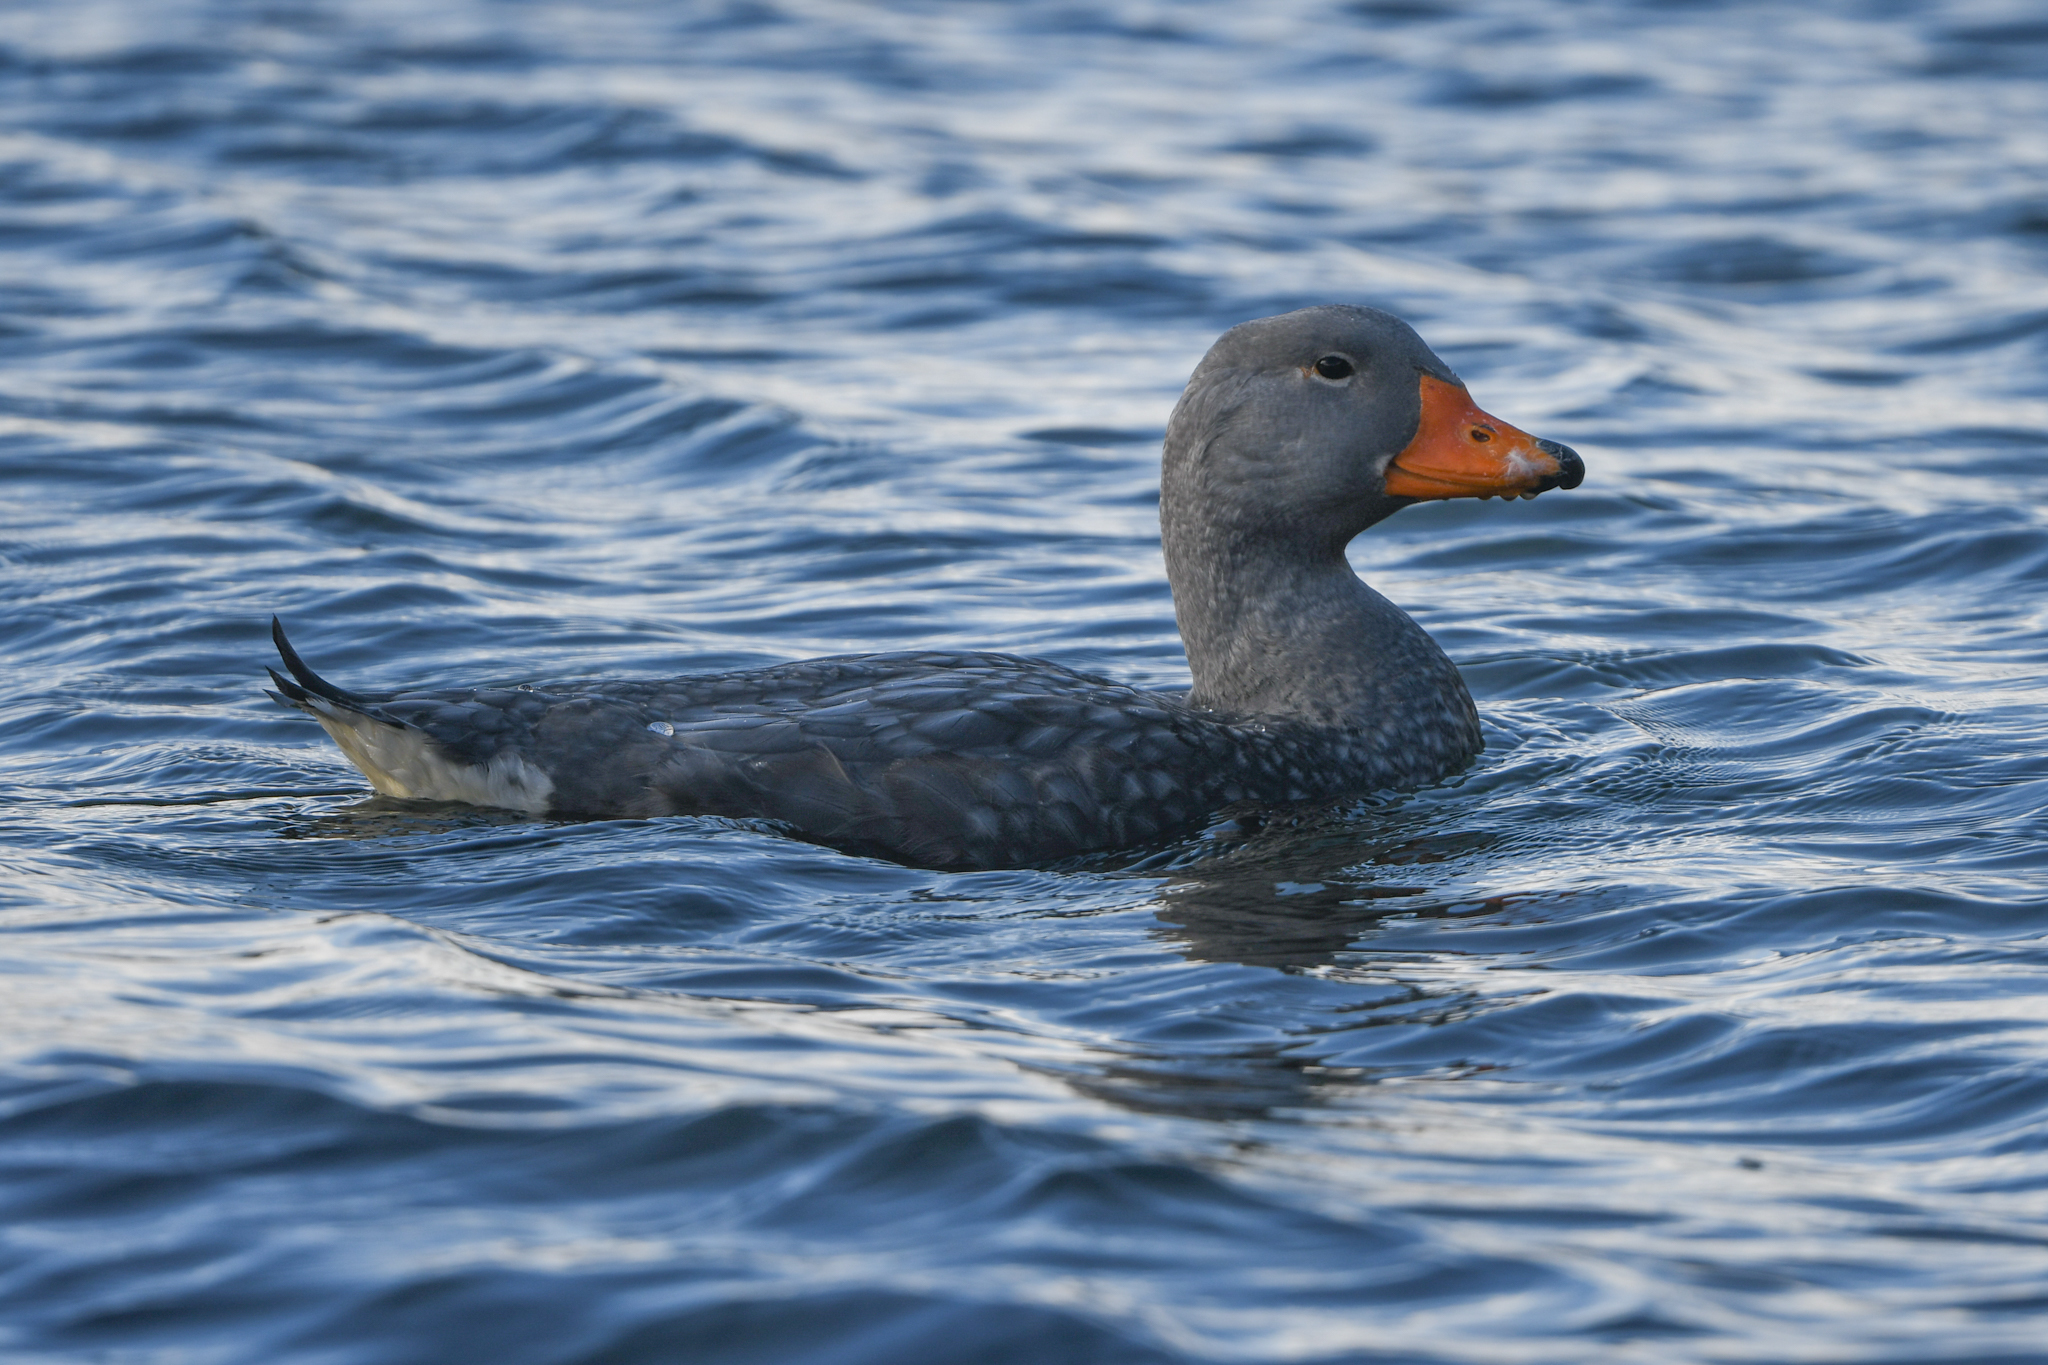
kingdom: Animalia
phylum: Chordata
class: Aves
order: Anseriformes
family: Anatidae
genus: Tachyeres
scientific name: Tachyeres pteneres
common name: Fuegian steamer duck
